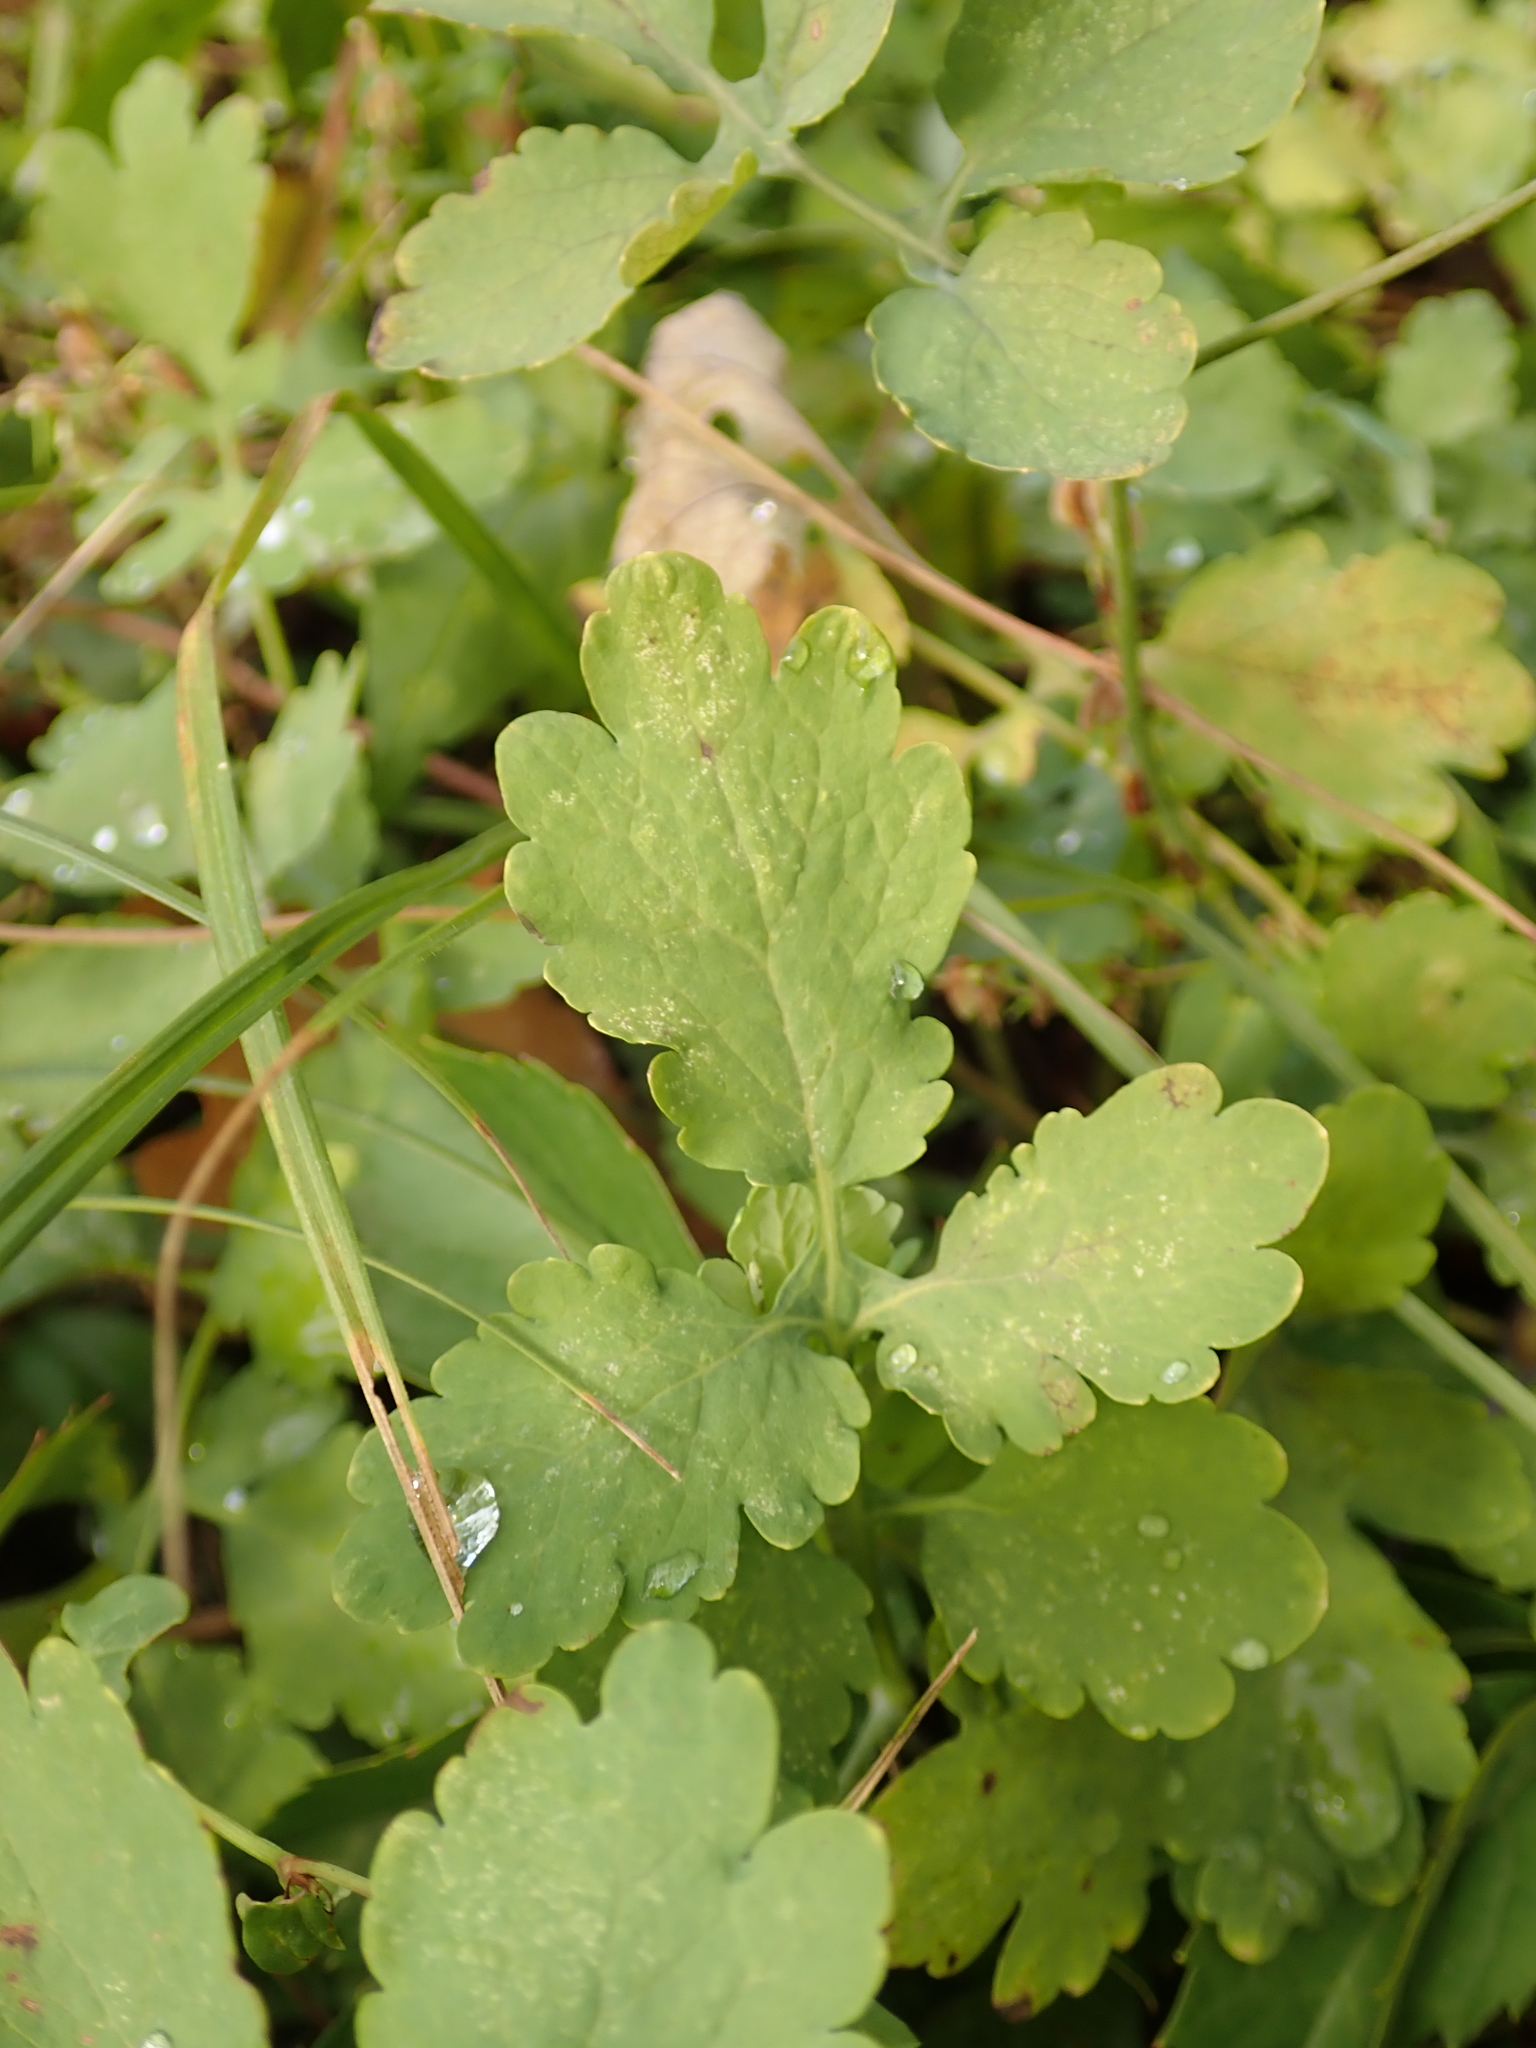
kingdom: Plantae
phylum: Tracheophyta
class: Magnoliopsida
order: Ranunculales
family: Papaveraceae
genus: Chelidonium
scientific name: Chelidonium majus
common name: Greater celandine
